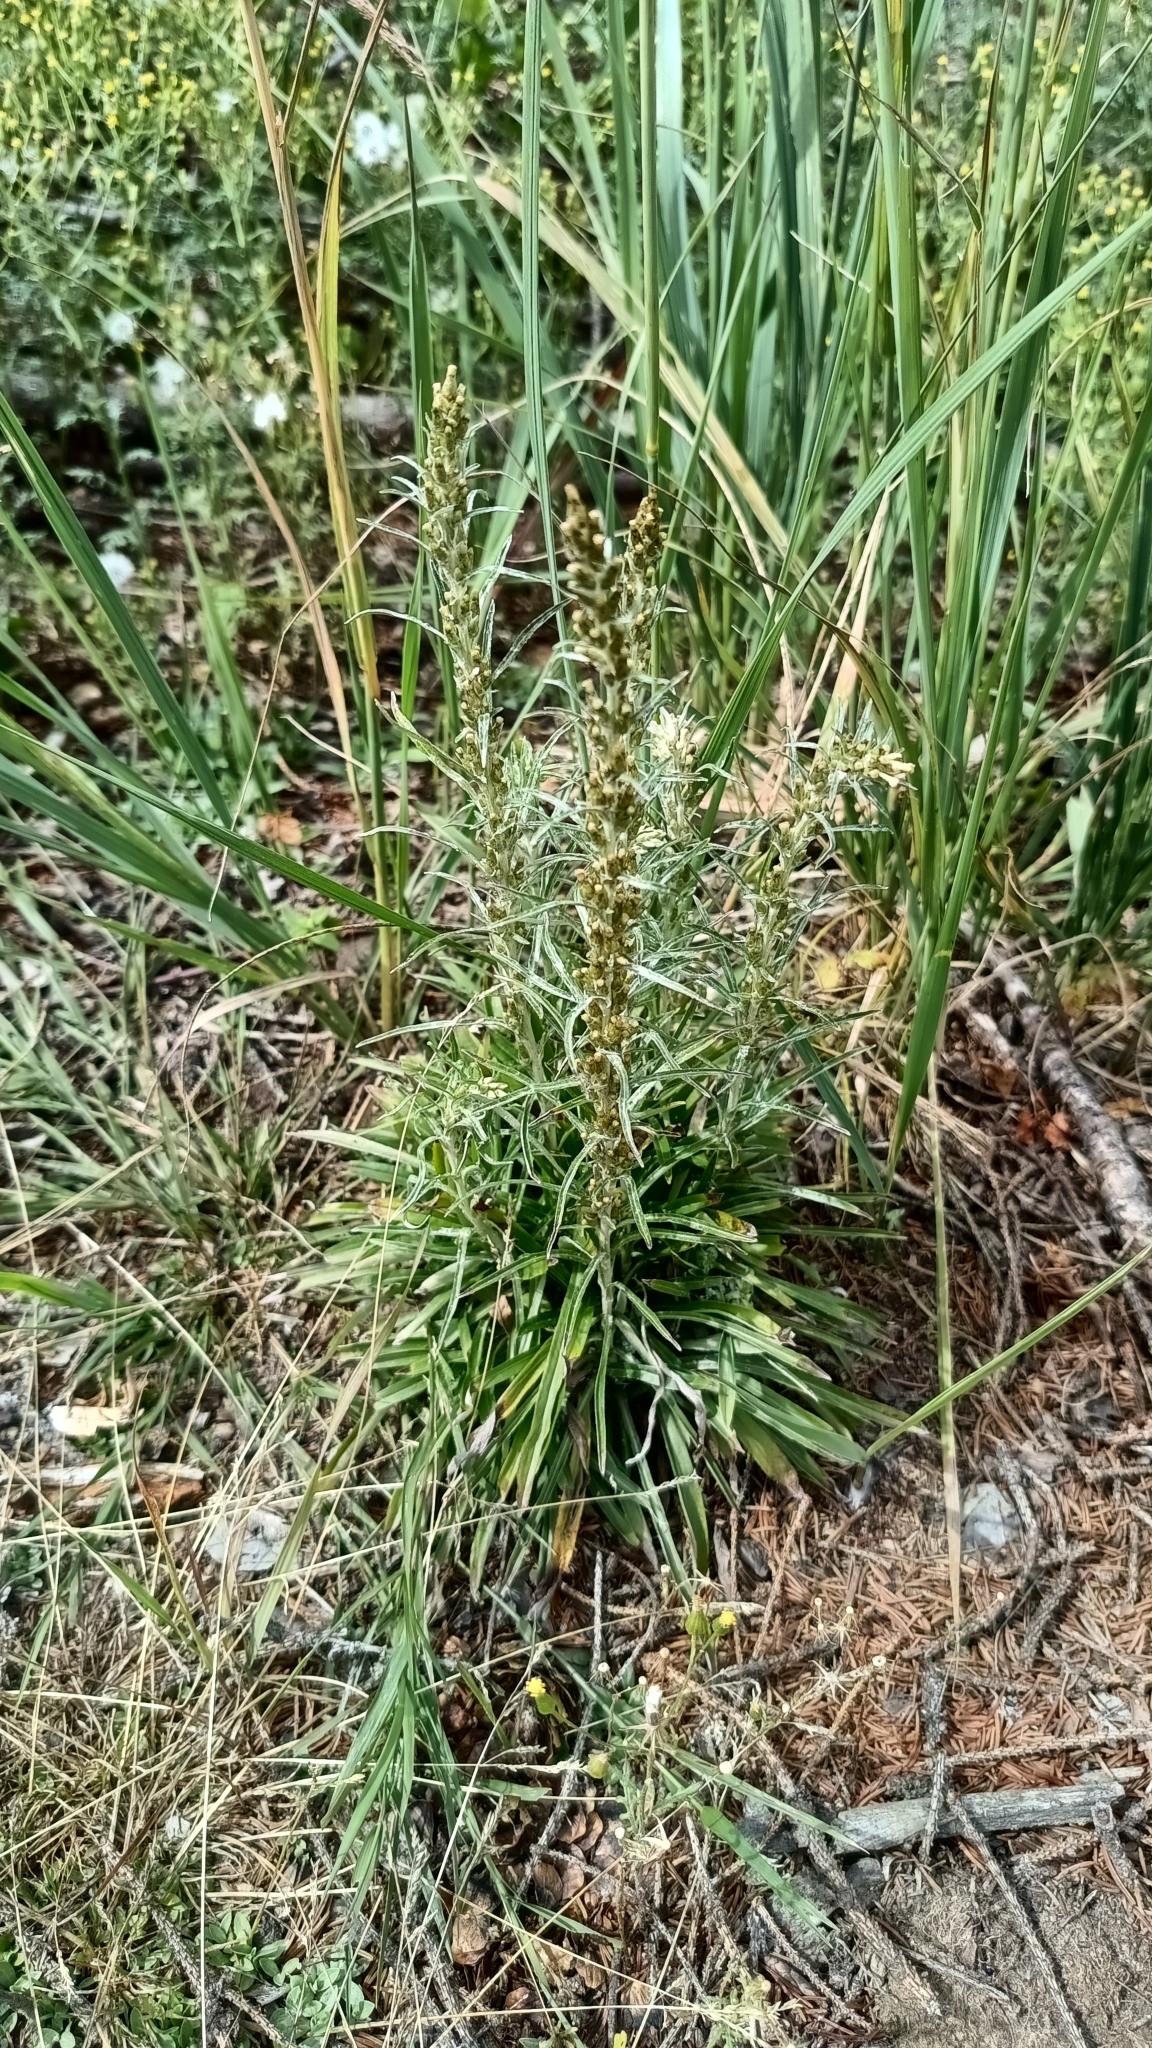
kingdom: Plantae
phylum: Tracheophyta
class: Magnoliopsida
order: Asterales
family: Asteraceae
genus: Omalotheca
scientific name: Omalotheca sylvatica
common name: Heath cudweed
